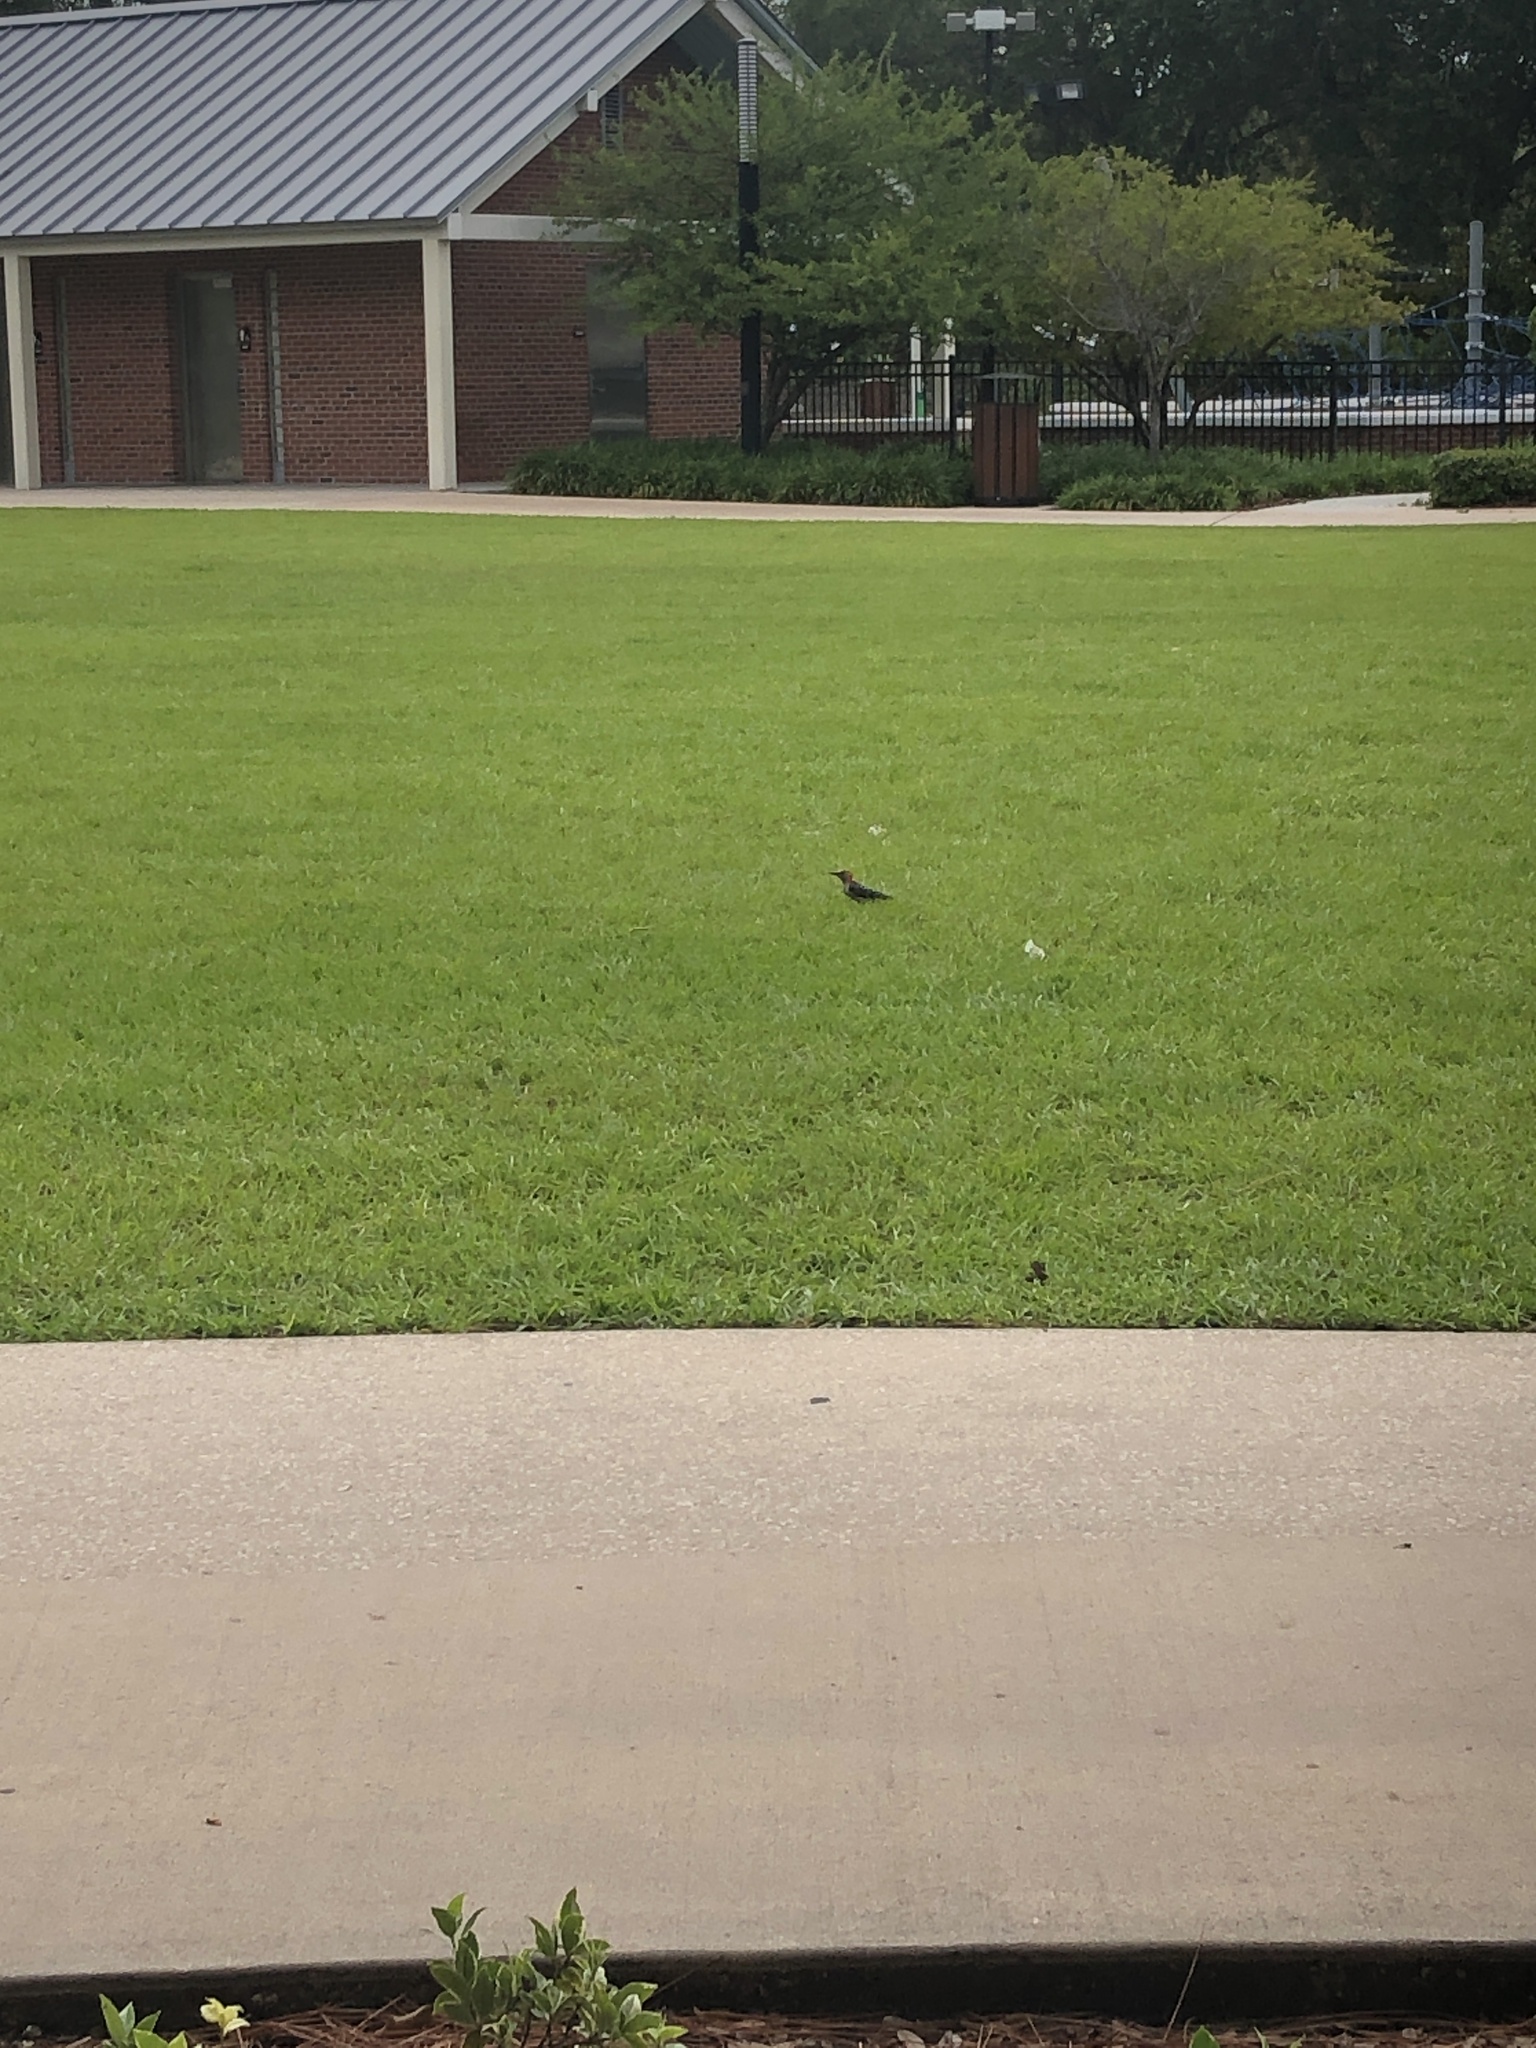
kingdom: Animalia
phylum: Chordata
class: Aves
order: Piciformes
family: Picidae
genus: Melanerpes
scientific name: Melanerpes carolinus
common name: Red-bellied woodpecker
